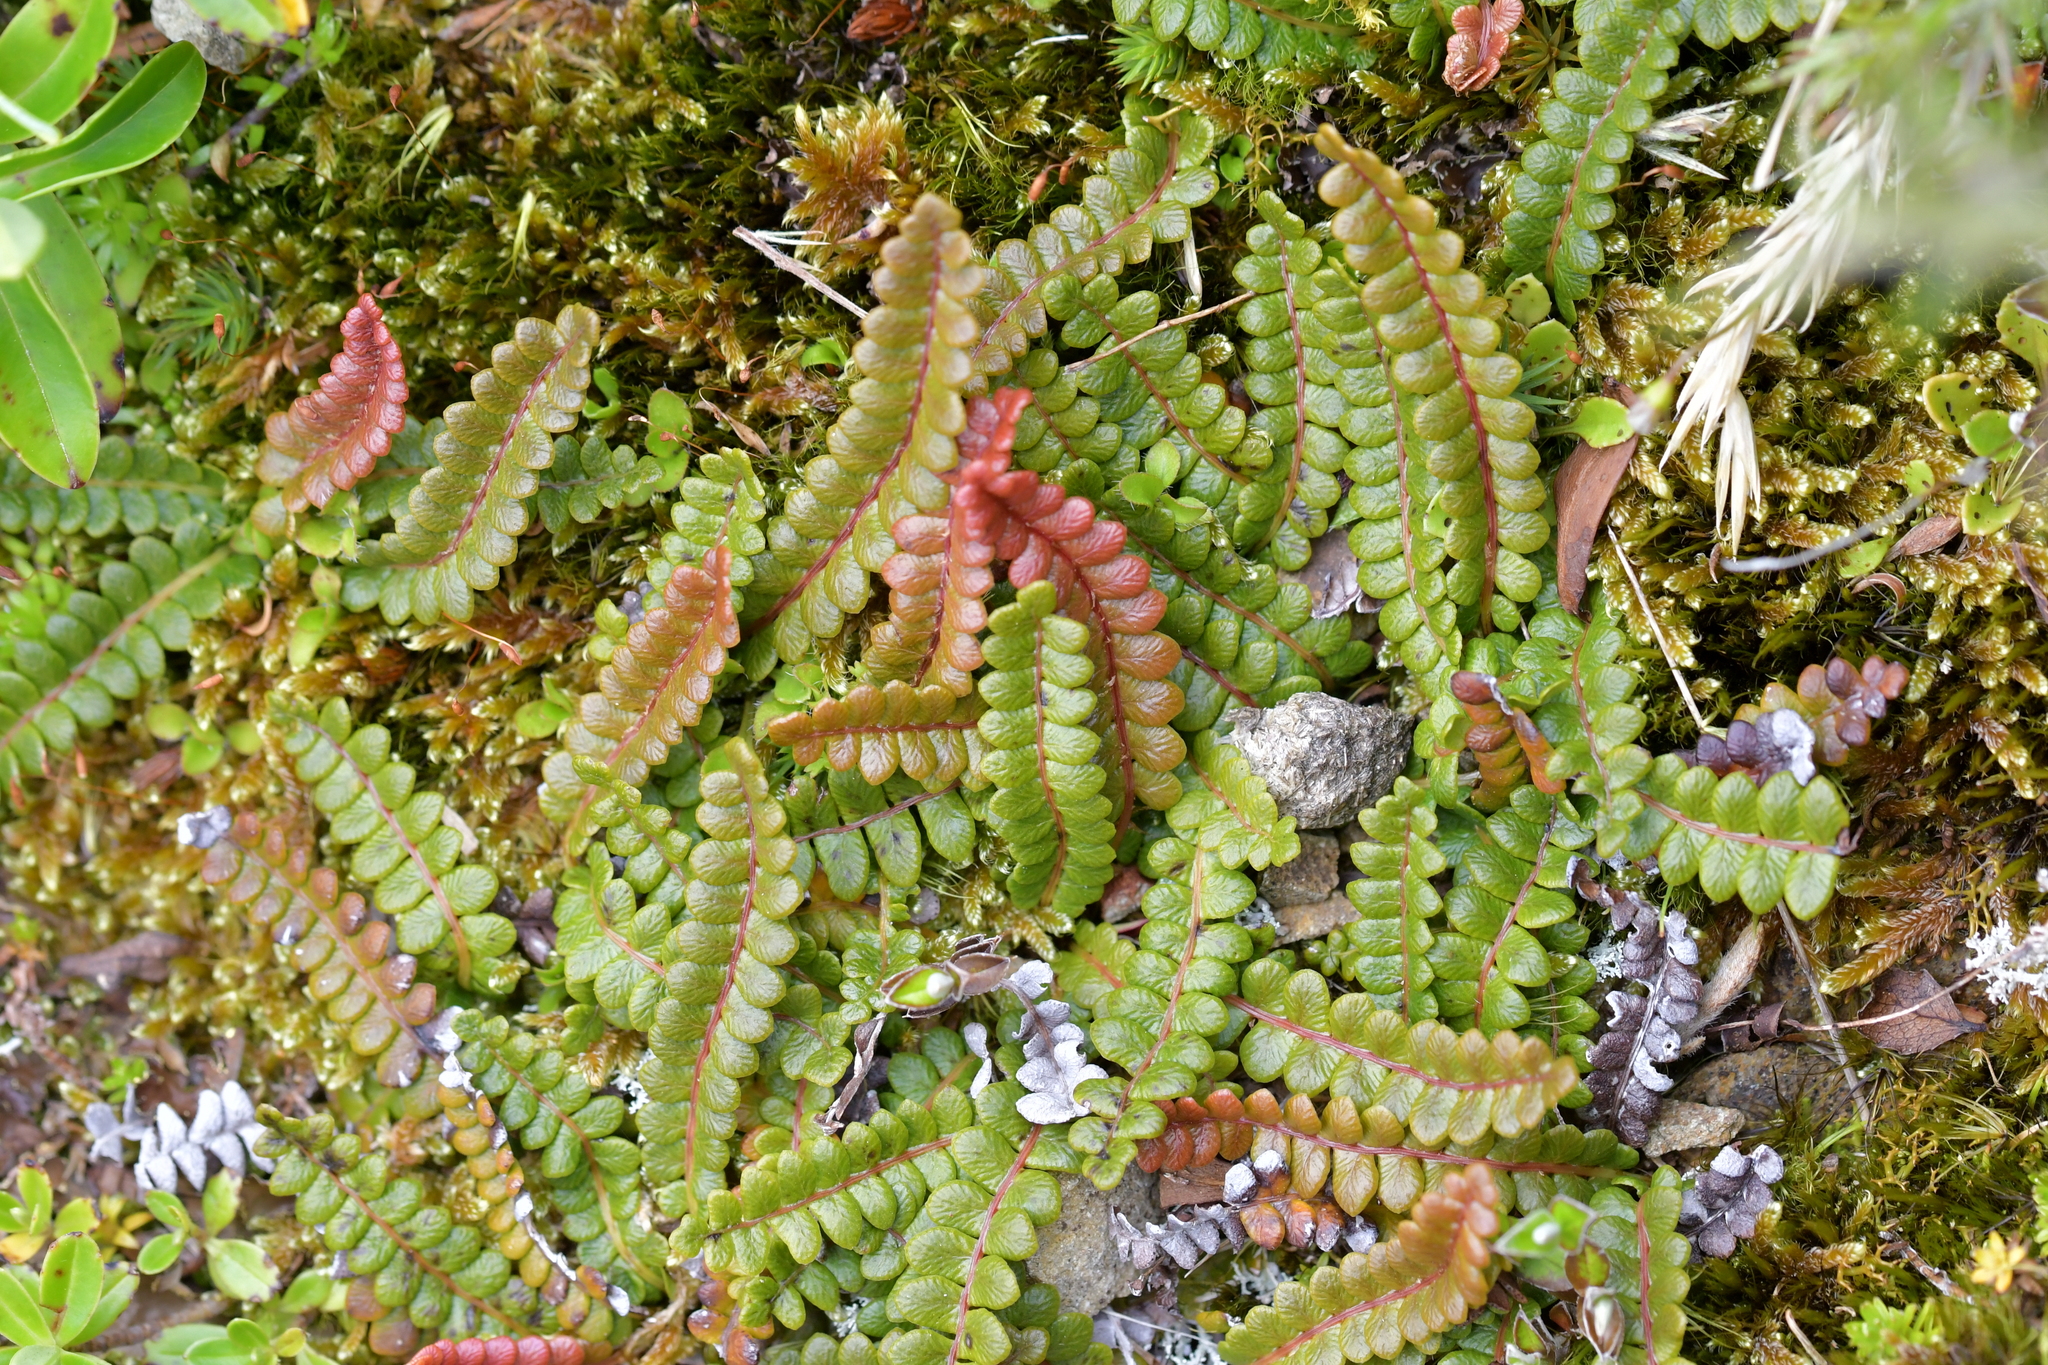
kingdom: Plantae
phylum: Tracheophyta
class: Polypodiopsida
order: Polypodiales
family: Blechnaceae
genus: Austroblechnum
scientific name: Austroblechnum penna-marina
